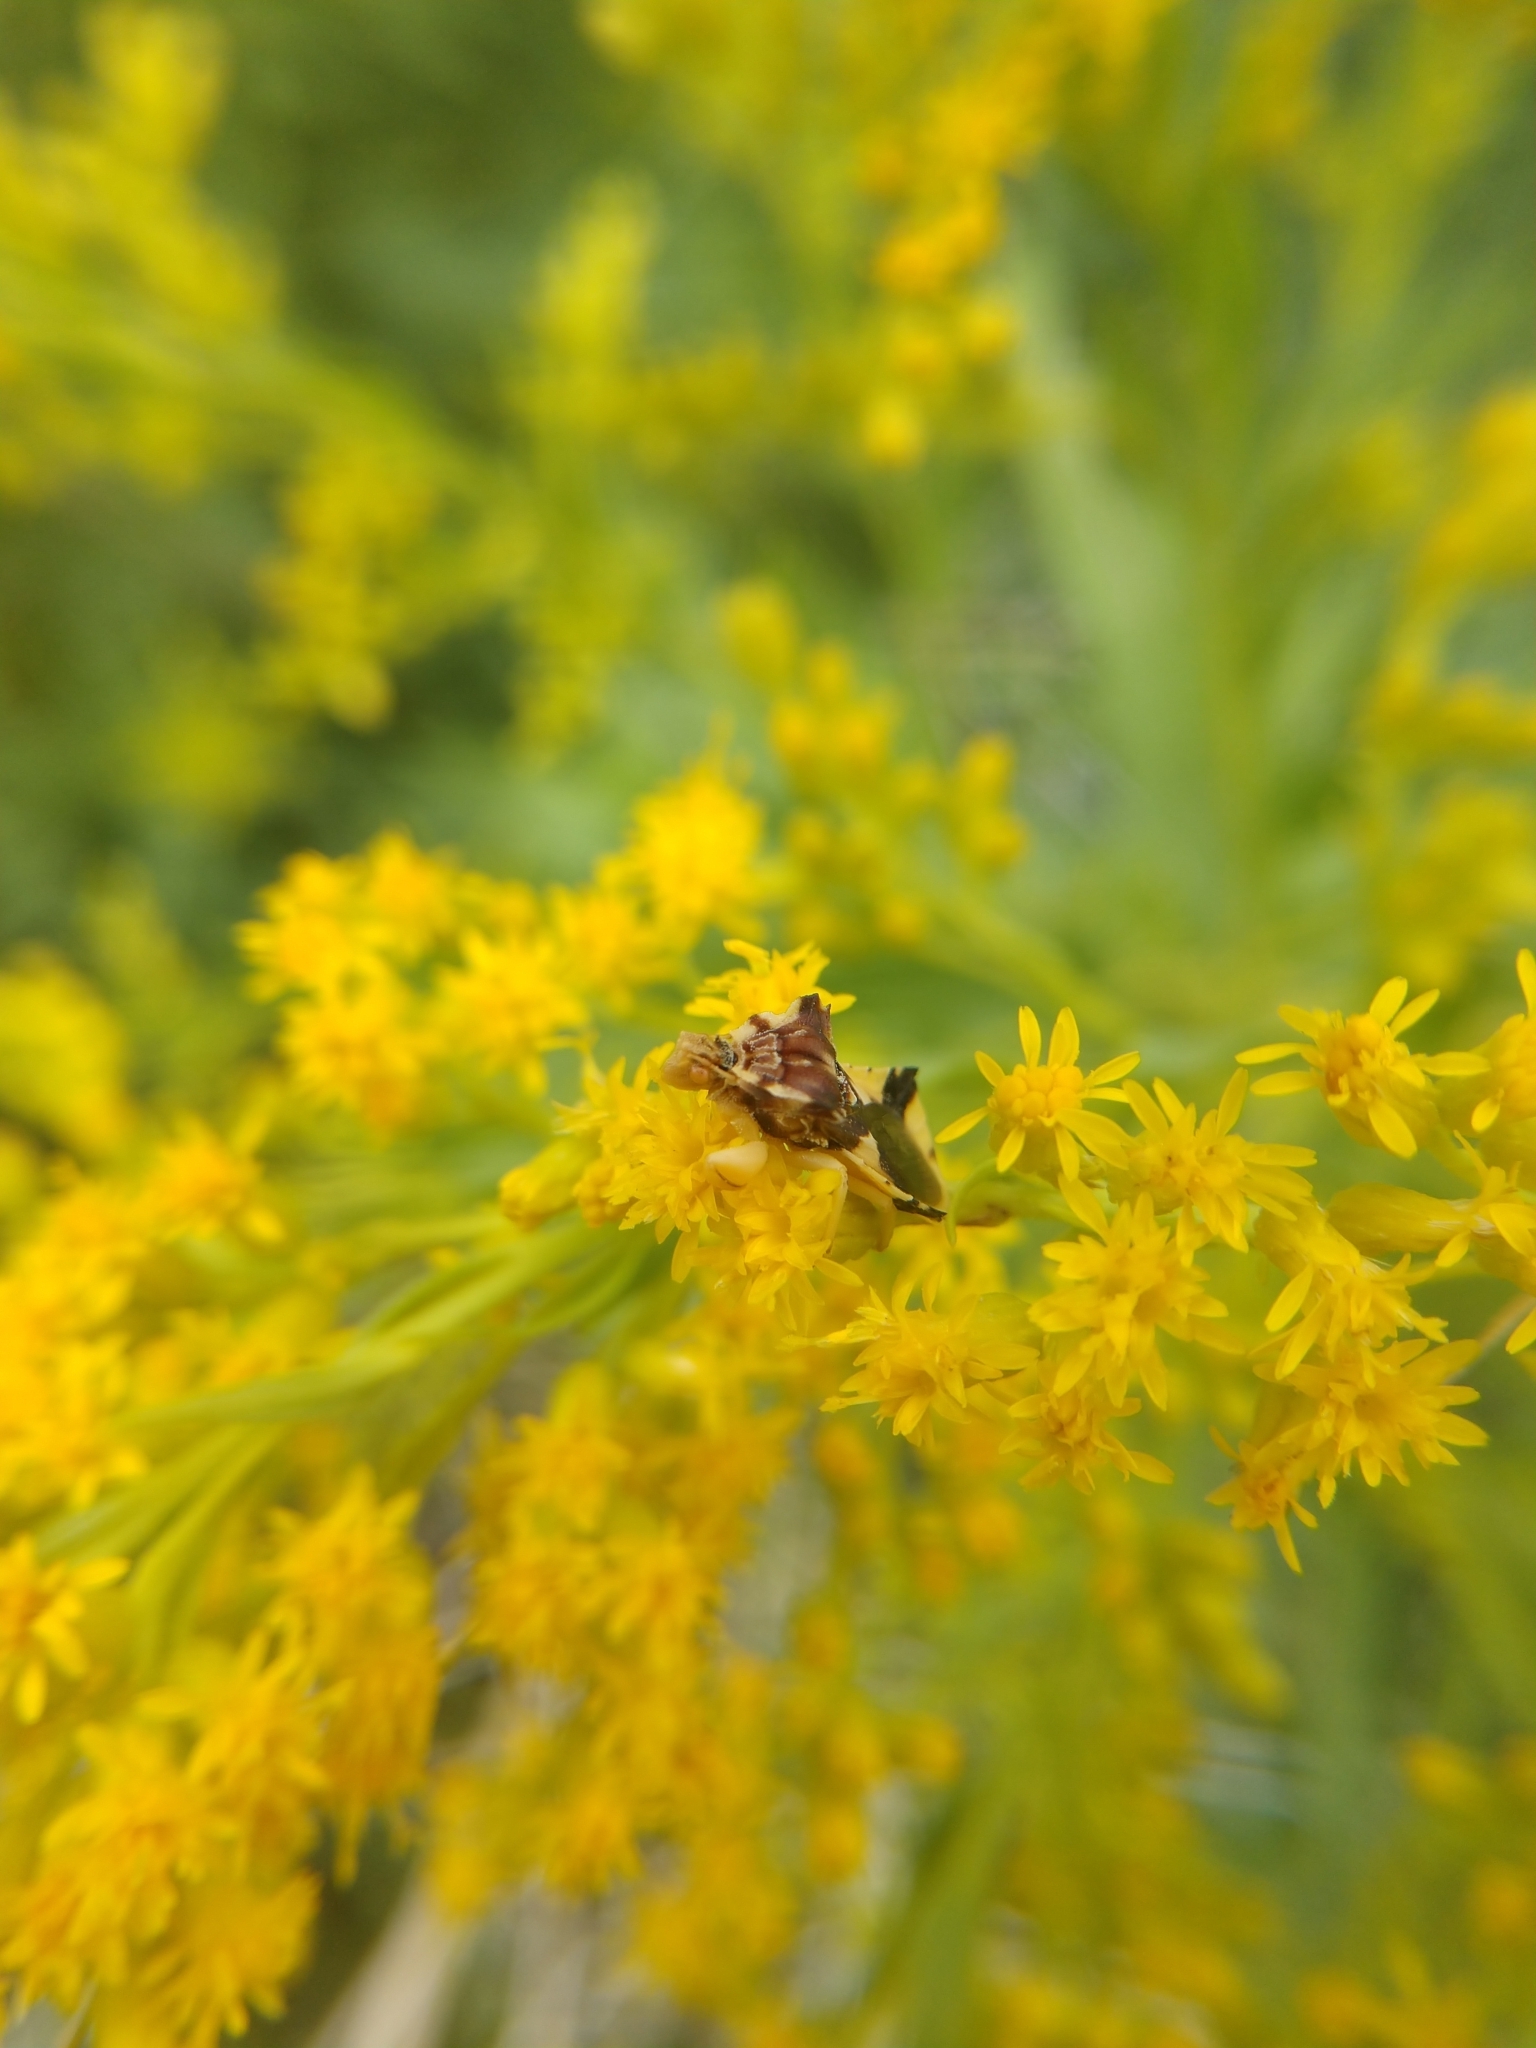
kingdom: Animalia
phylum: Arthropoda
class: Insecta
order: Hemiptera
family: Reduviidae
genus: Phymata
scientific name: Phymata americana
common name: Jagged ambush bug
